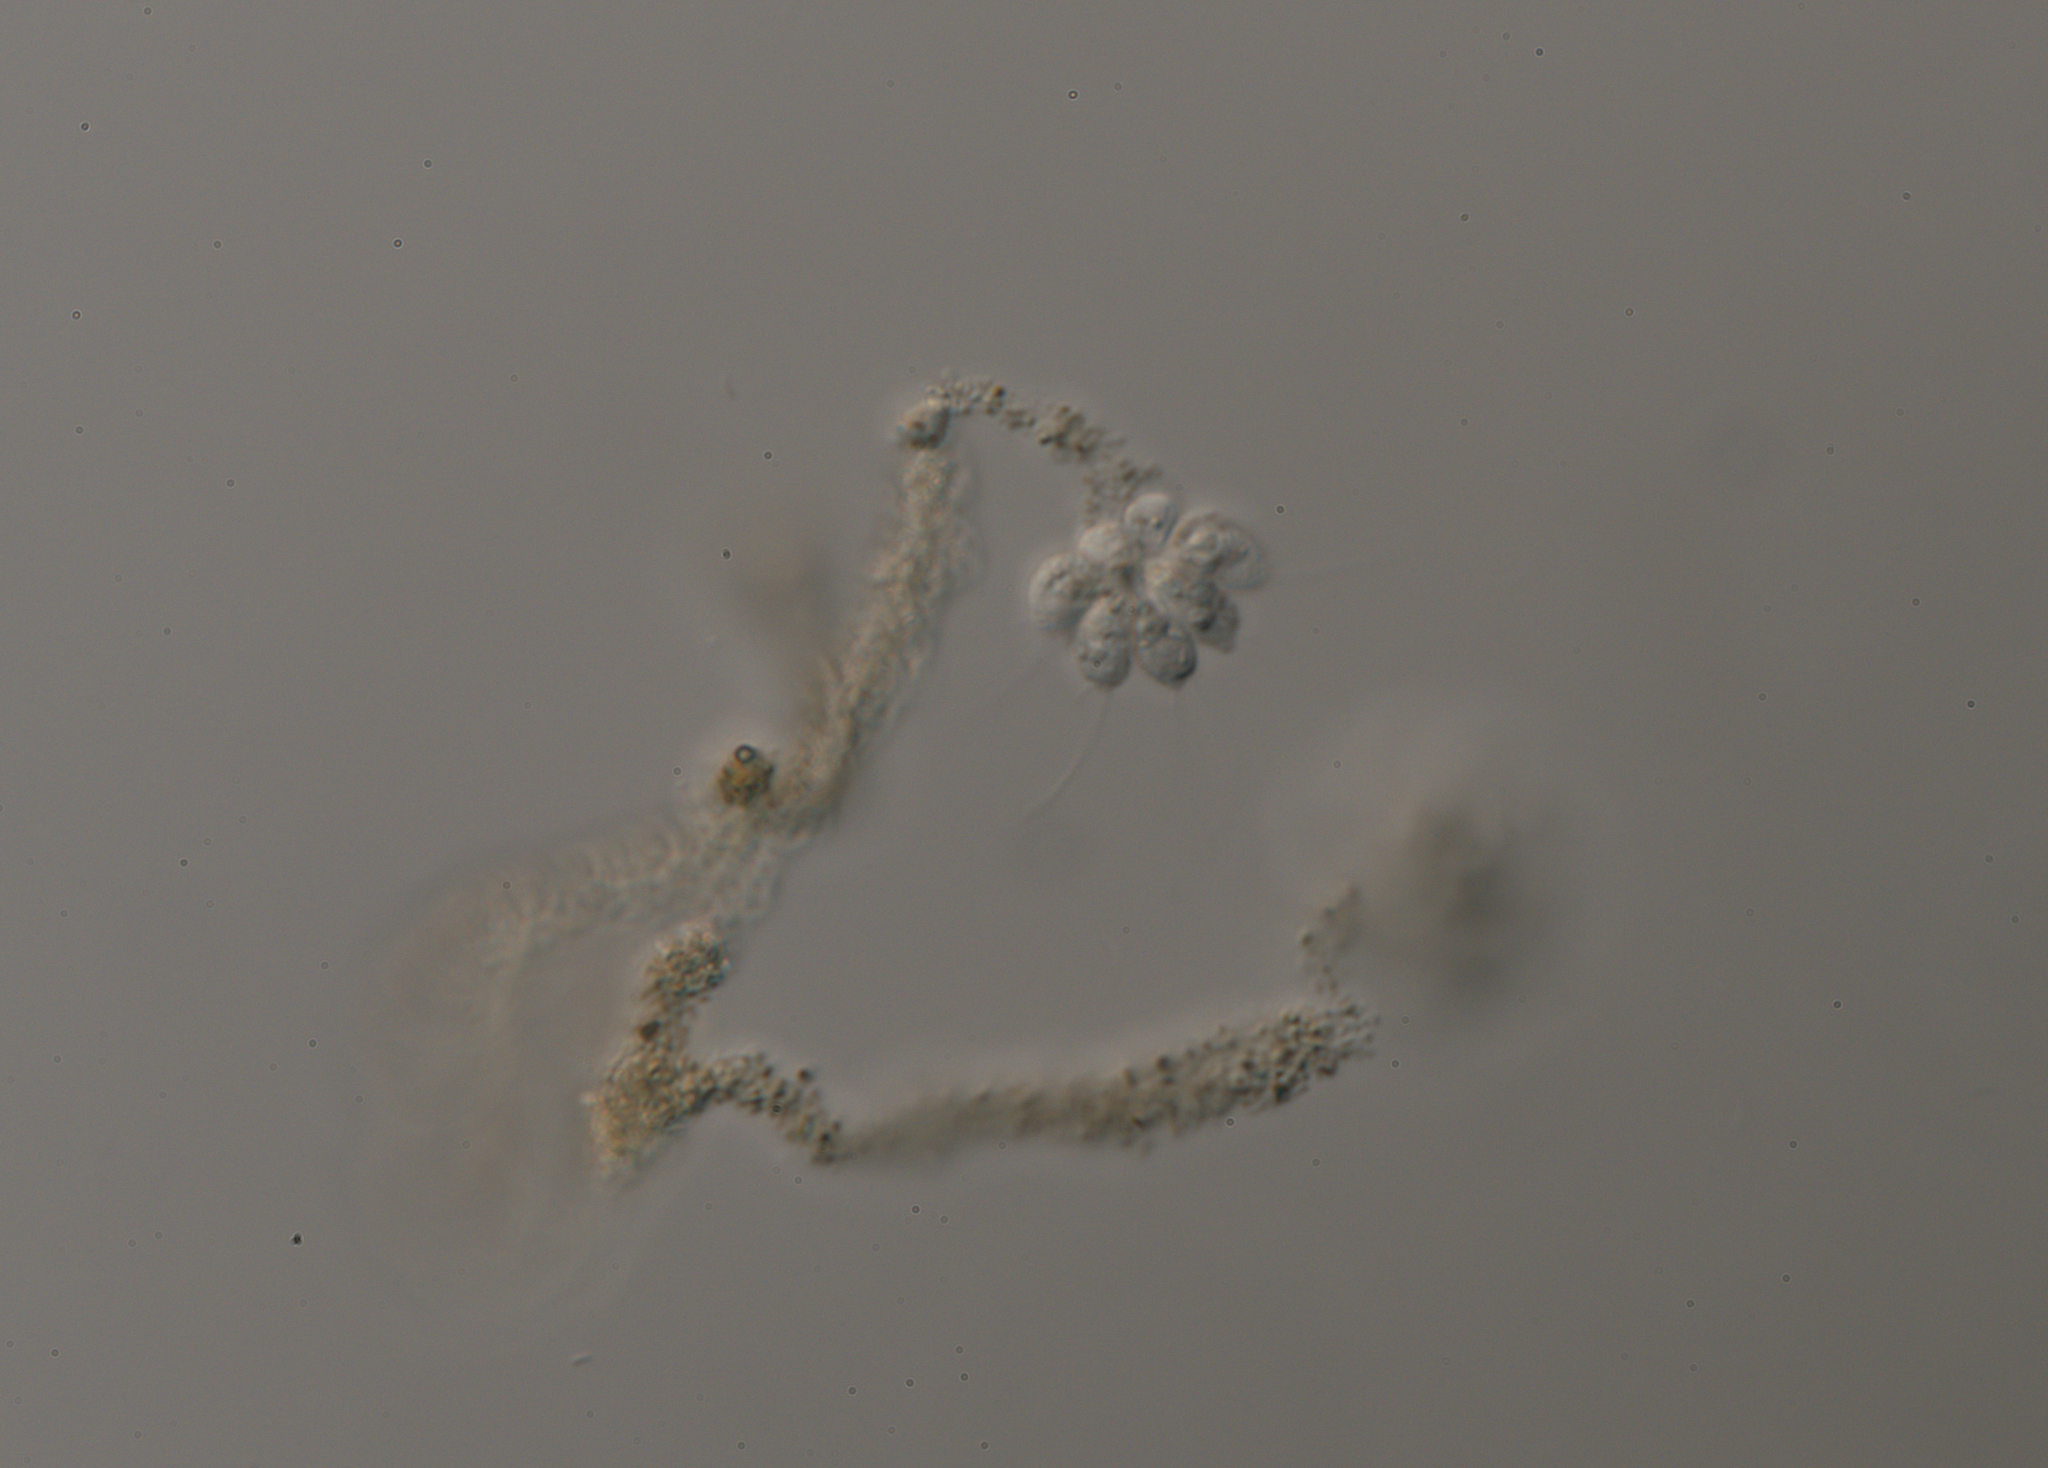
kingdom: Chromista
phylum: Ochrophyta
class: Chrysophyceae
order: Chromulinales
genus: Anthophysa
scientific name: Anthophysa vegetans
